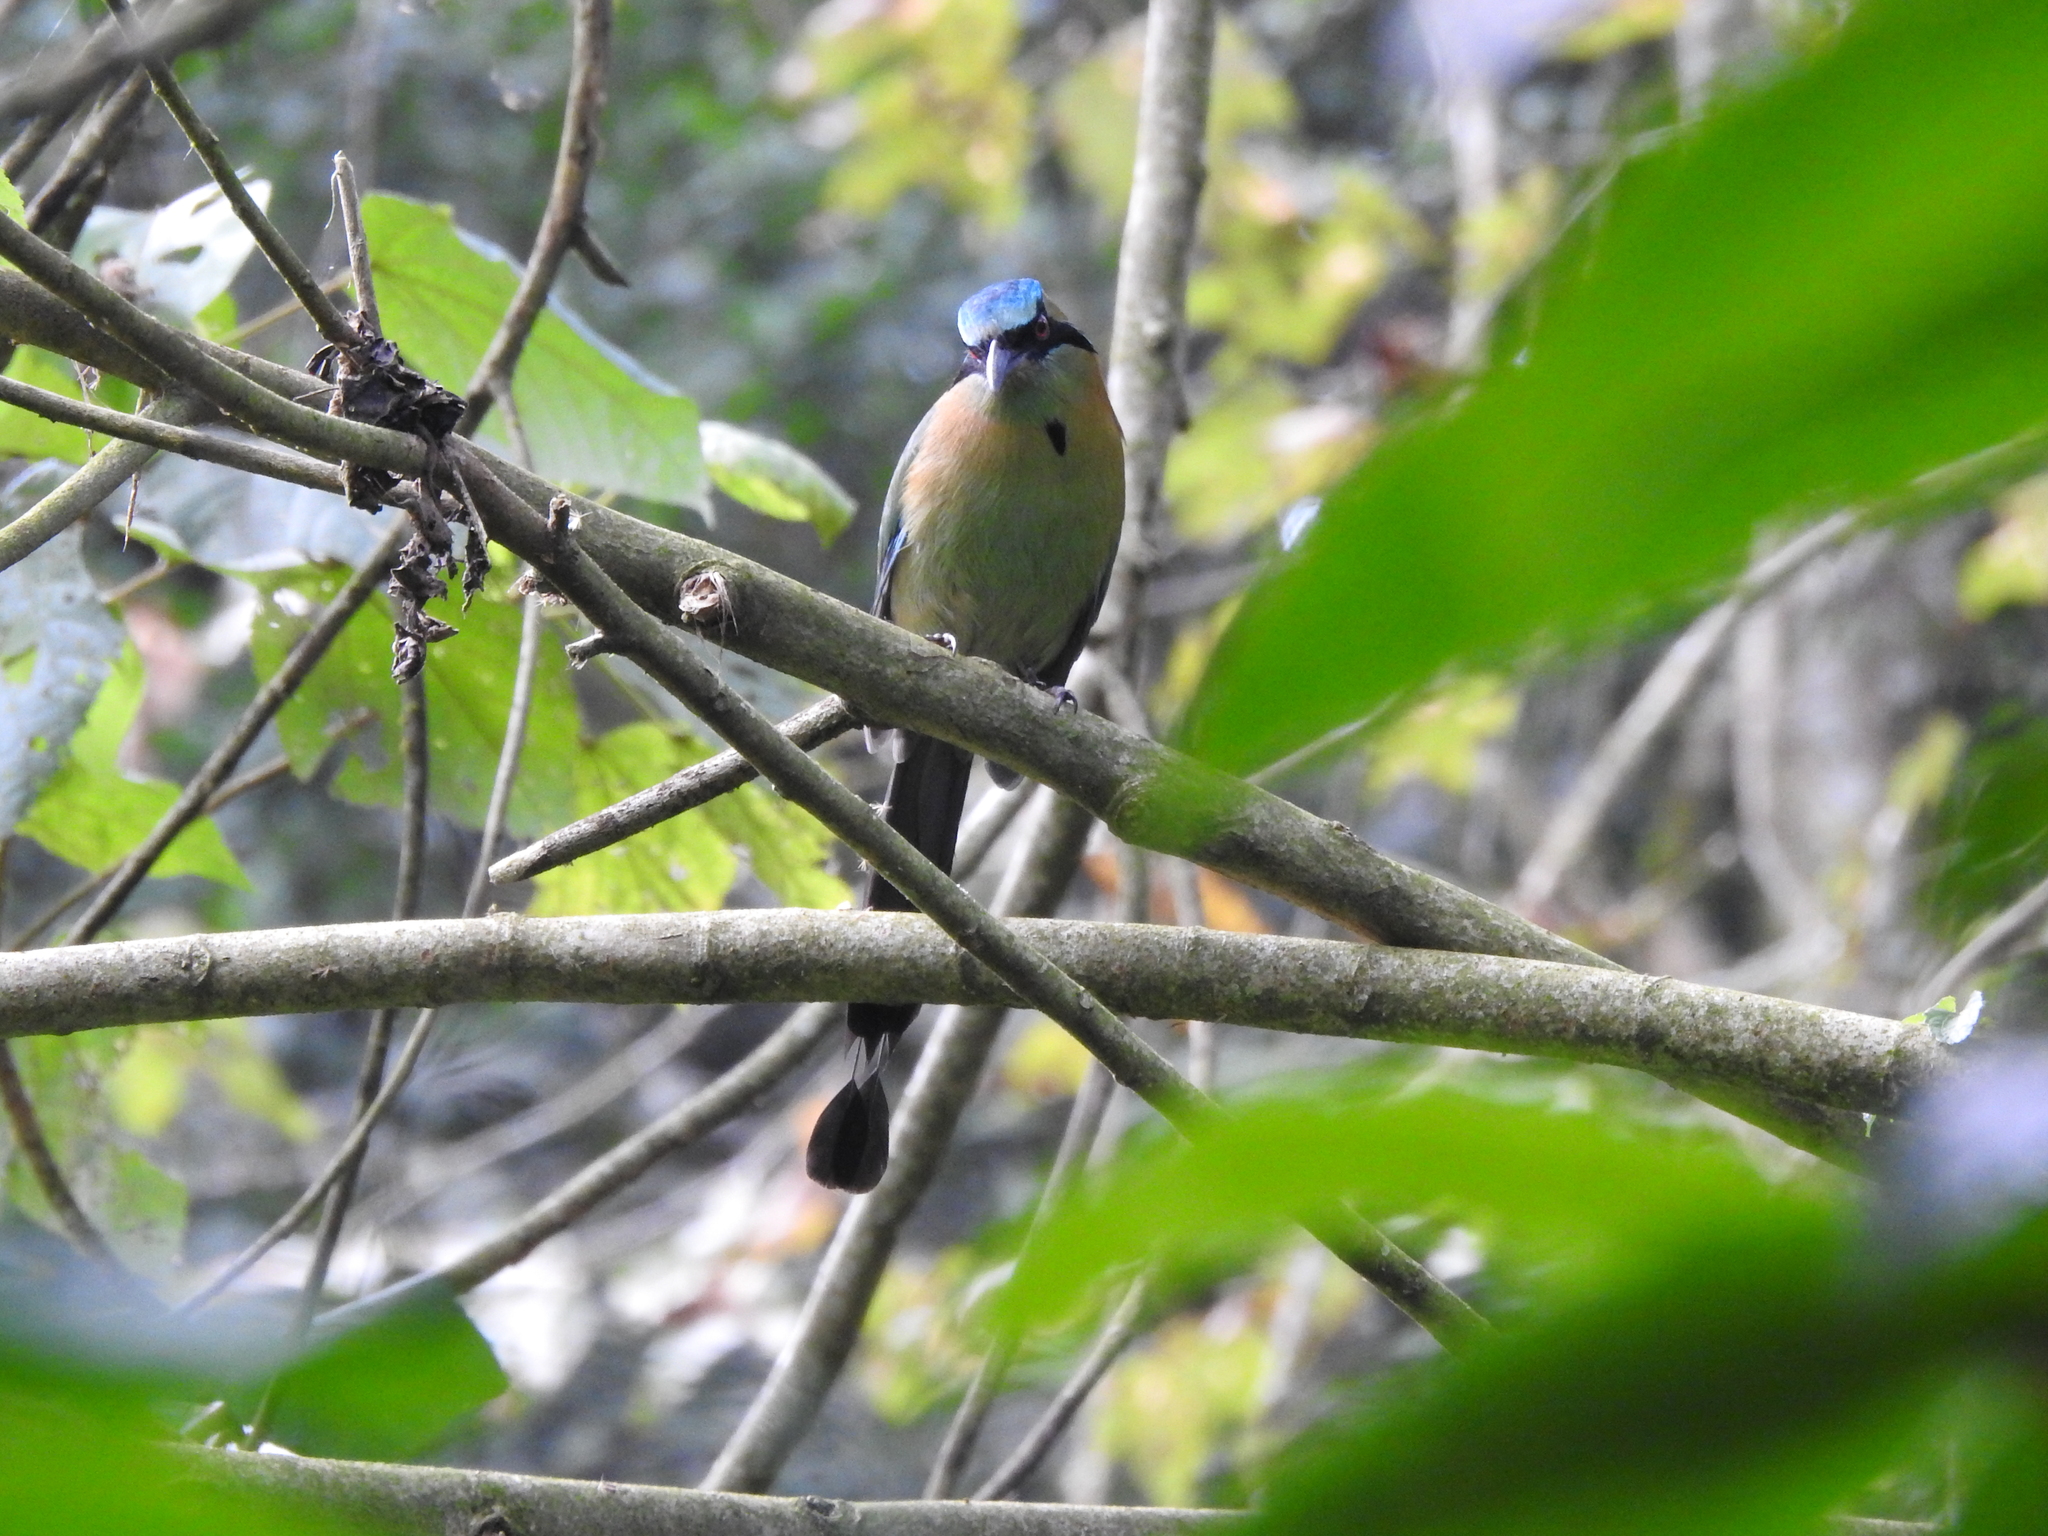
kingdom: Animalia
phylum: Chordata
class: Aves
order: Coraciiformes
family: Momotidae
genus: Momotus
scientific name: Momotus coeruliceps
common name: Blue-capped motmot
